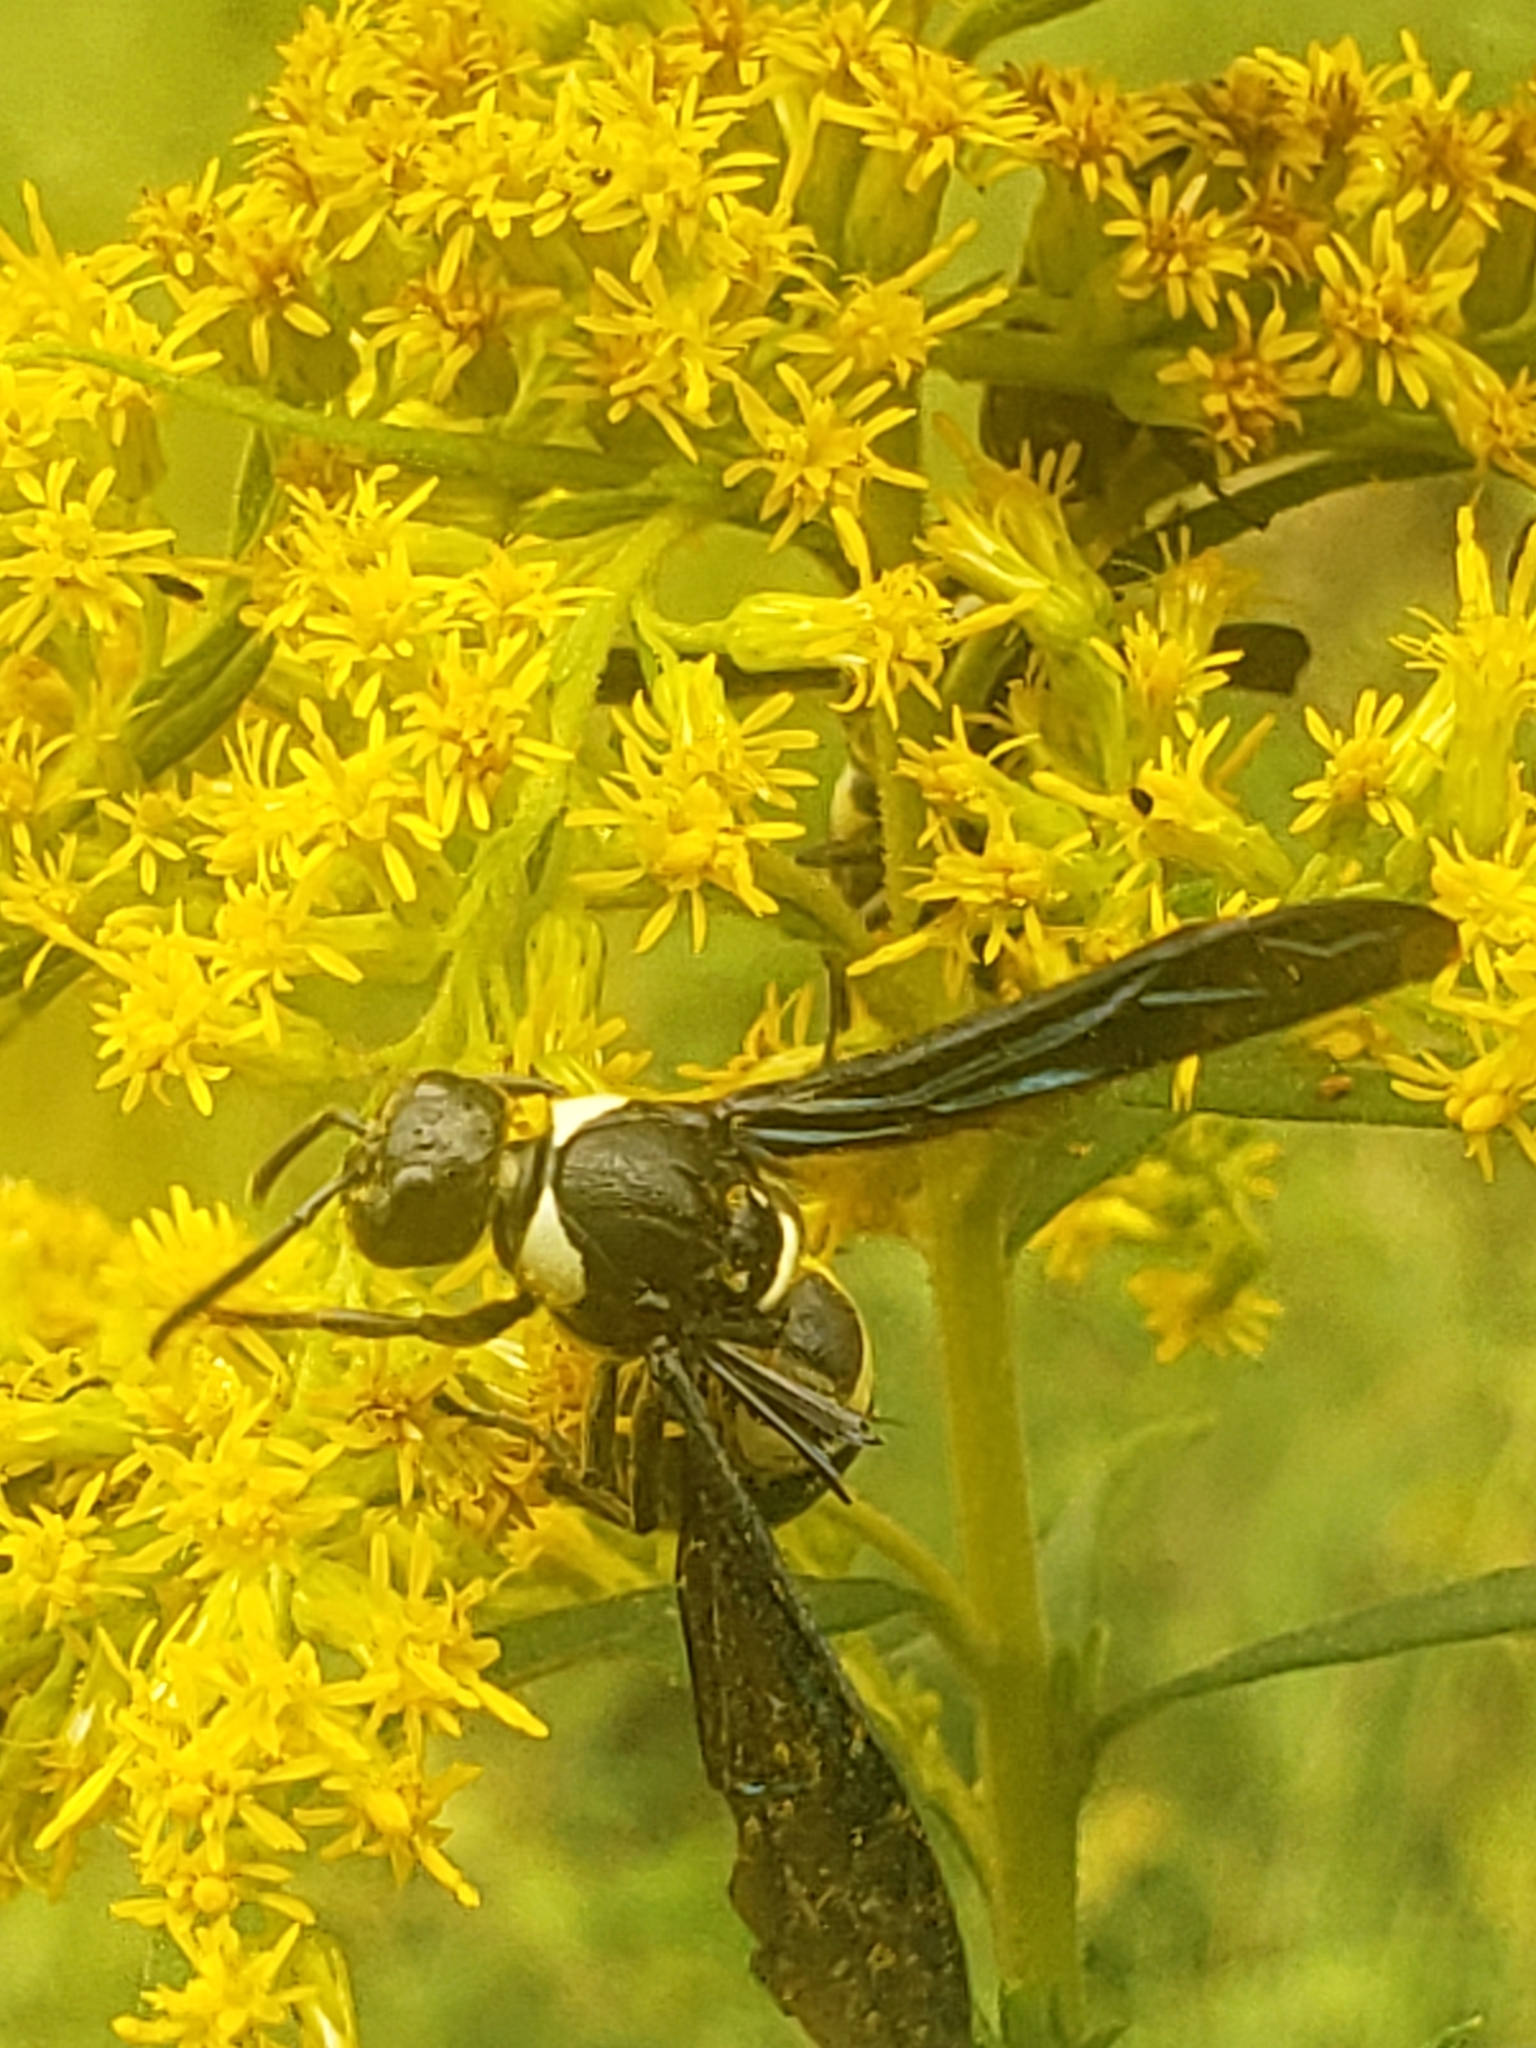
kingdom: Animalia
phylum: Arthropoda
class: Insecta
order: Hymenoptera
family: Eumenidae
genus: Monobia
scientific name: Monobia quadridens
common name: Four-toothed mason wasp
